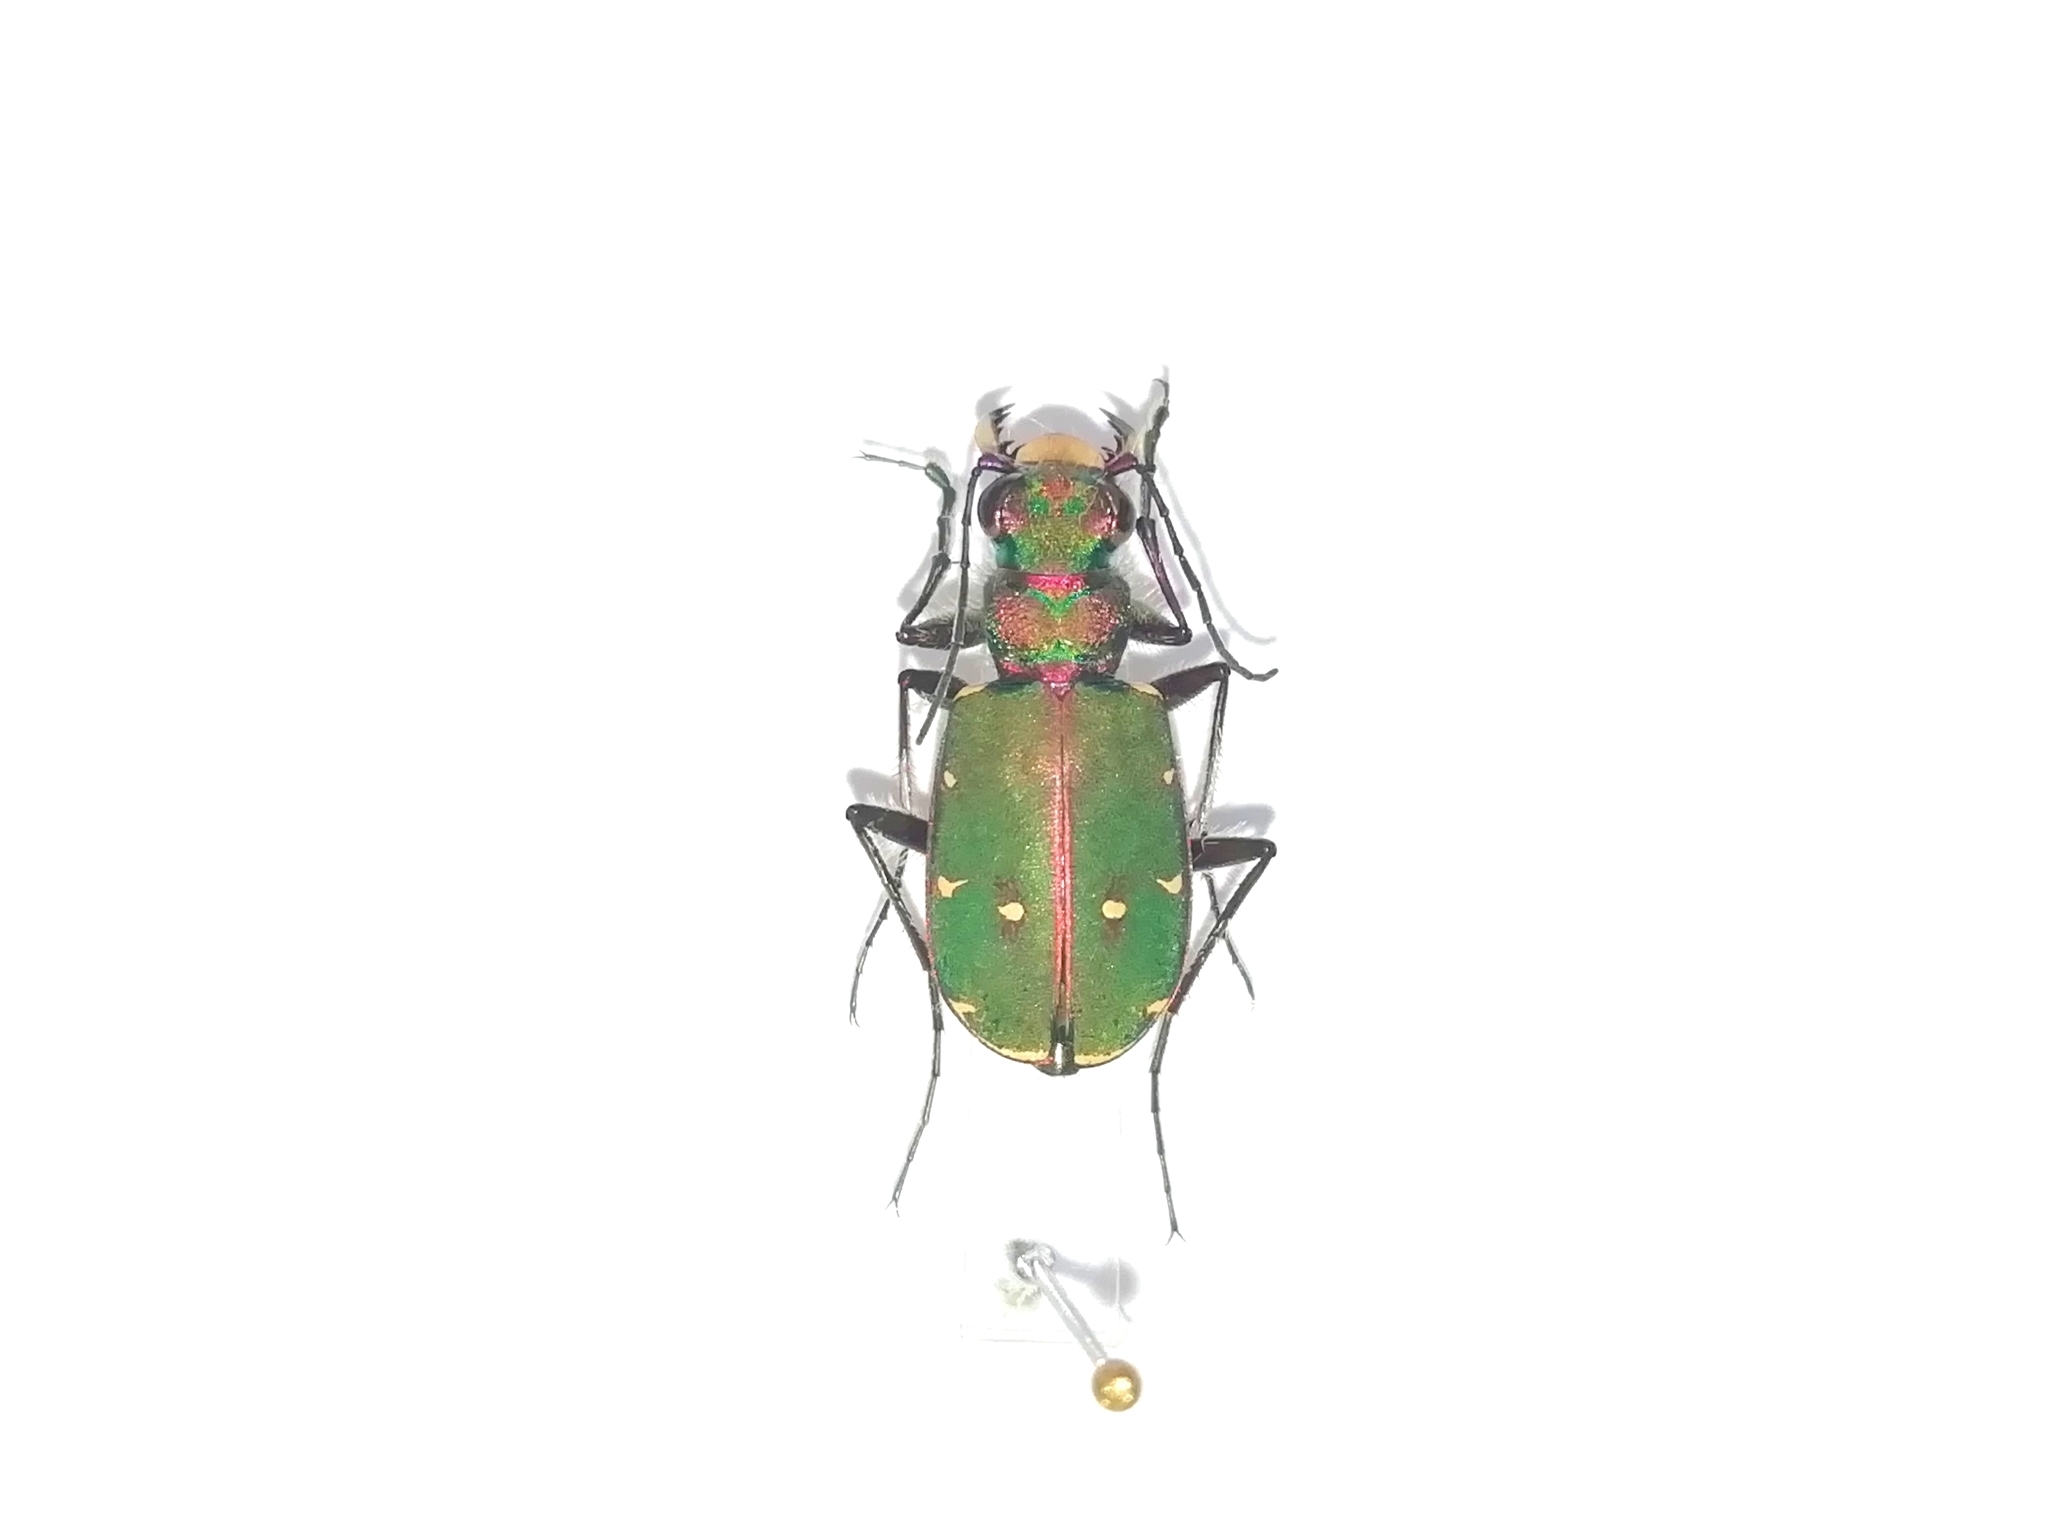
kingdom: Animalia
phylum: Arthropoda
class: Insecta
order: Coleoptera
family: Carabidae
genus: Cicindela
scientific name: Cicindela campestris
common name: Common tiger beetle
